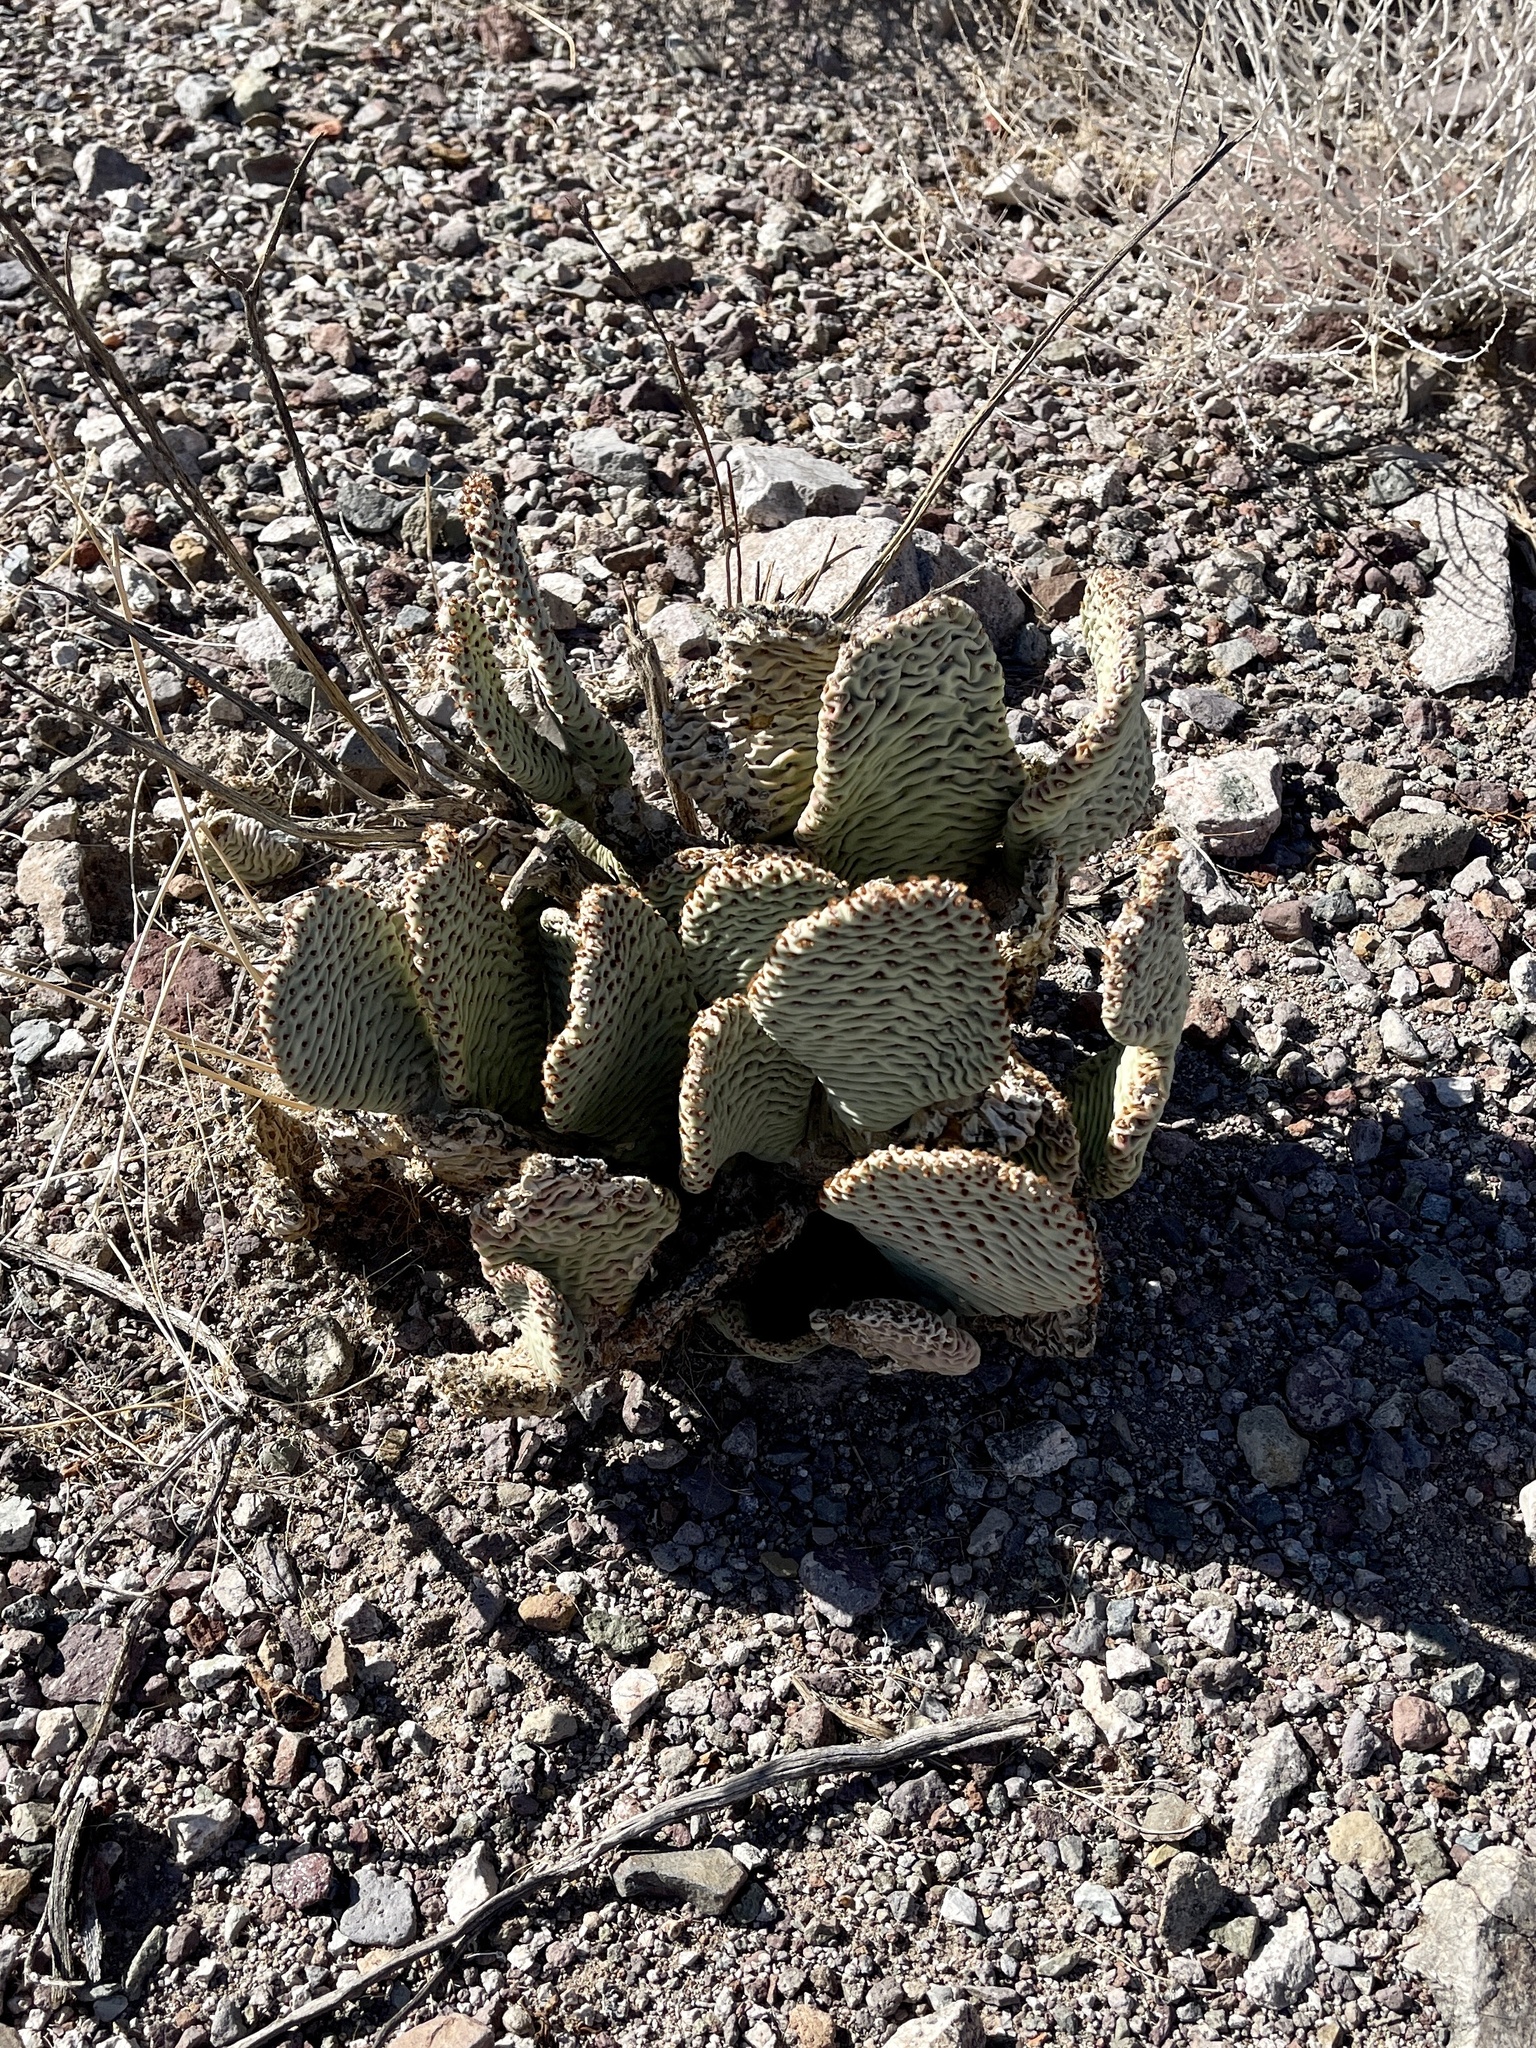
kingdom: Plantae
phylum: Tracheophyta
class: Magnoliopsida
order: Caryophyllales
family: Cactaceae
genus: Opuntia
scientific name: Opuntia basilaris
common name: Beavertail prickly-pear
